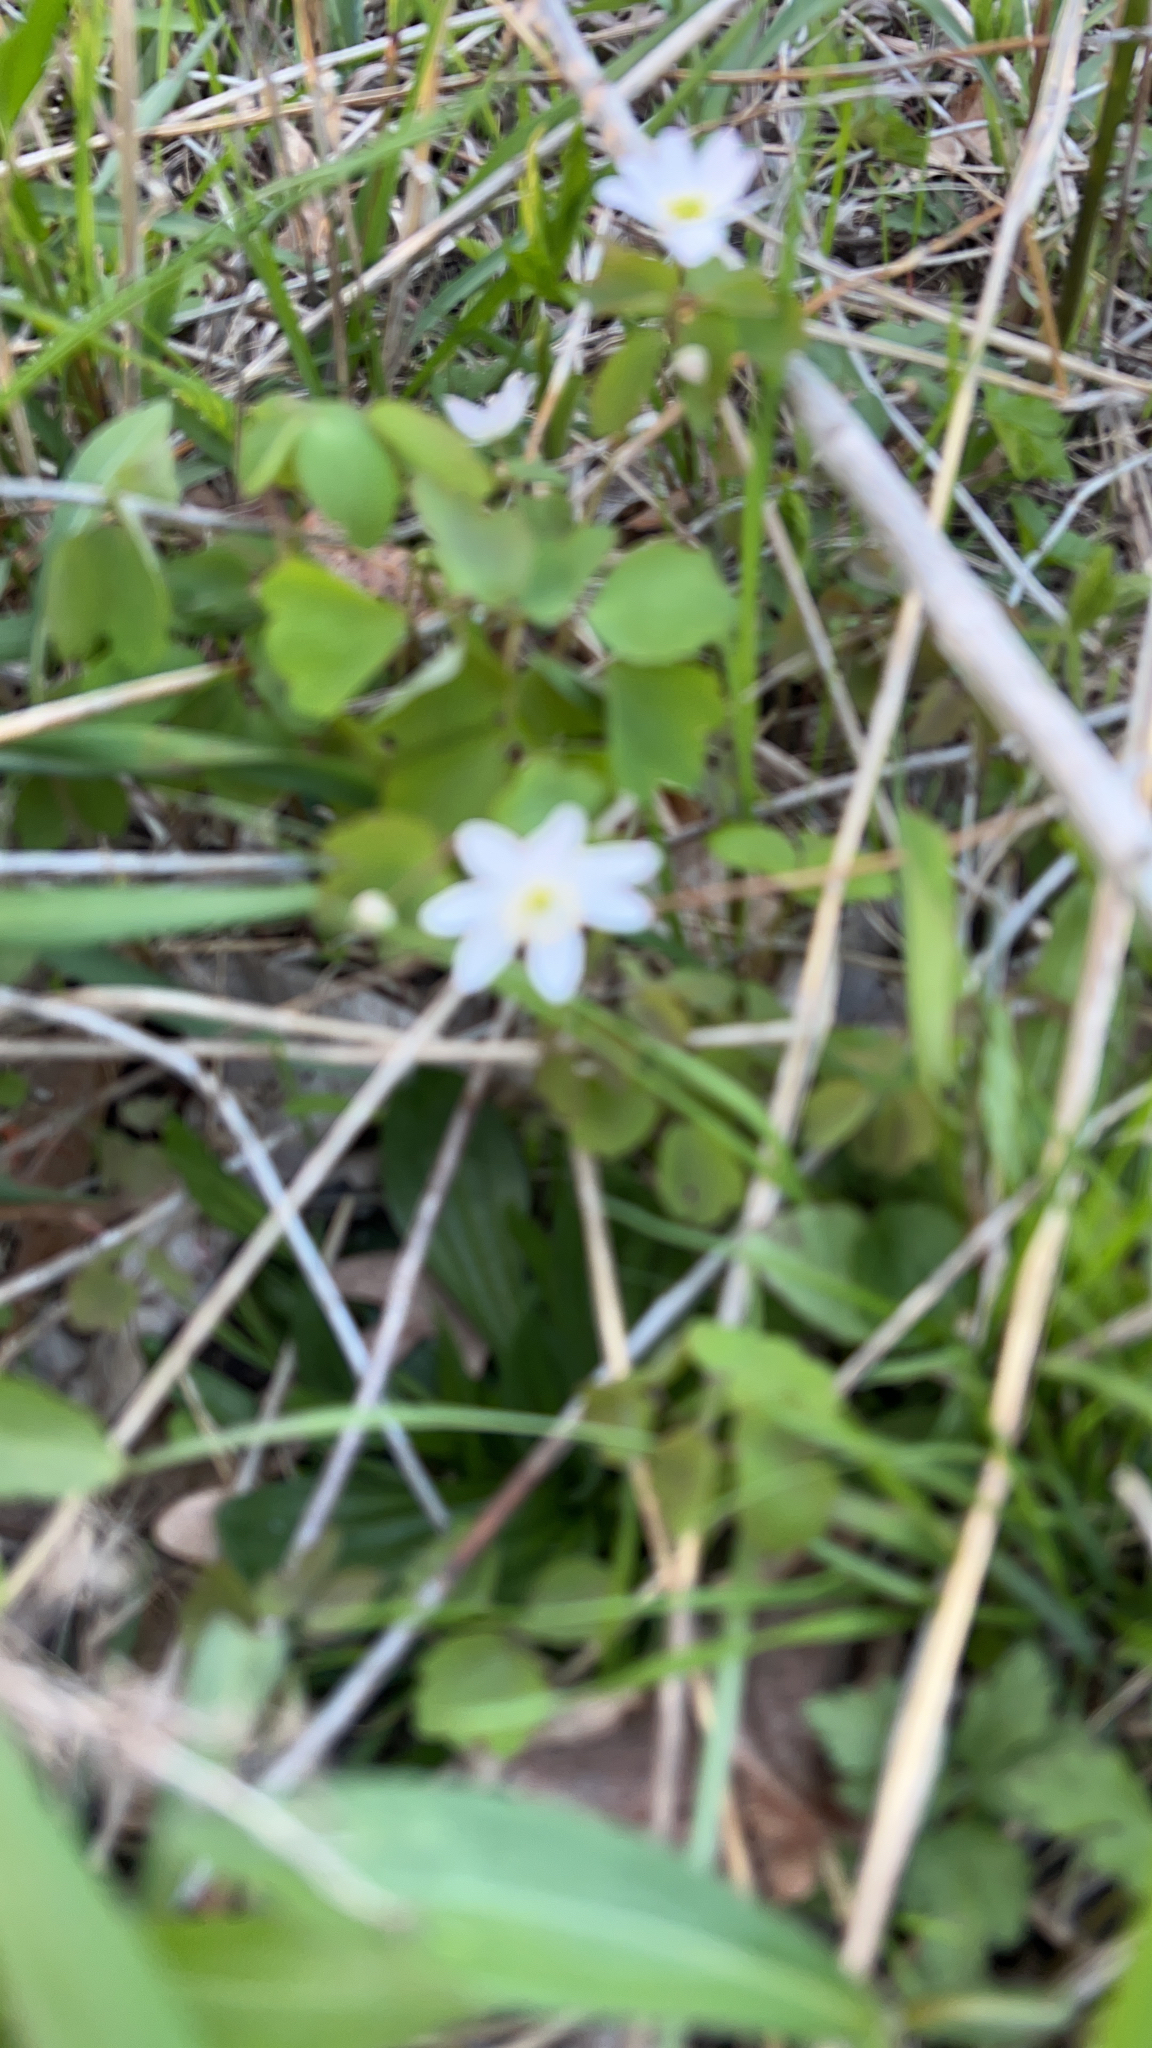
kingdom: Plantae
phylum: Tracheophyta
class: Magnoliopsida
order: Ranunculales
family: Ranunculaceae
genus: Thalictrum
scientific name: Thalictrum thalictroides
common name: Rue-anemone
